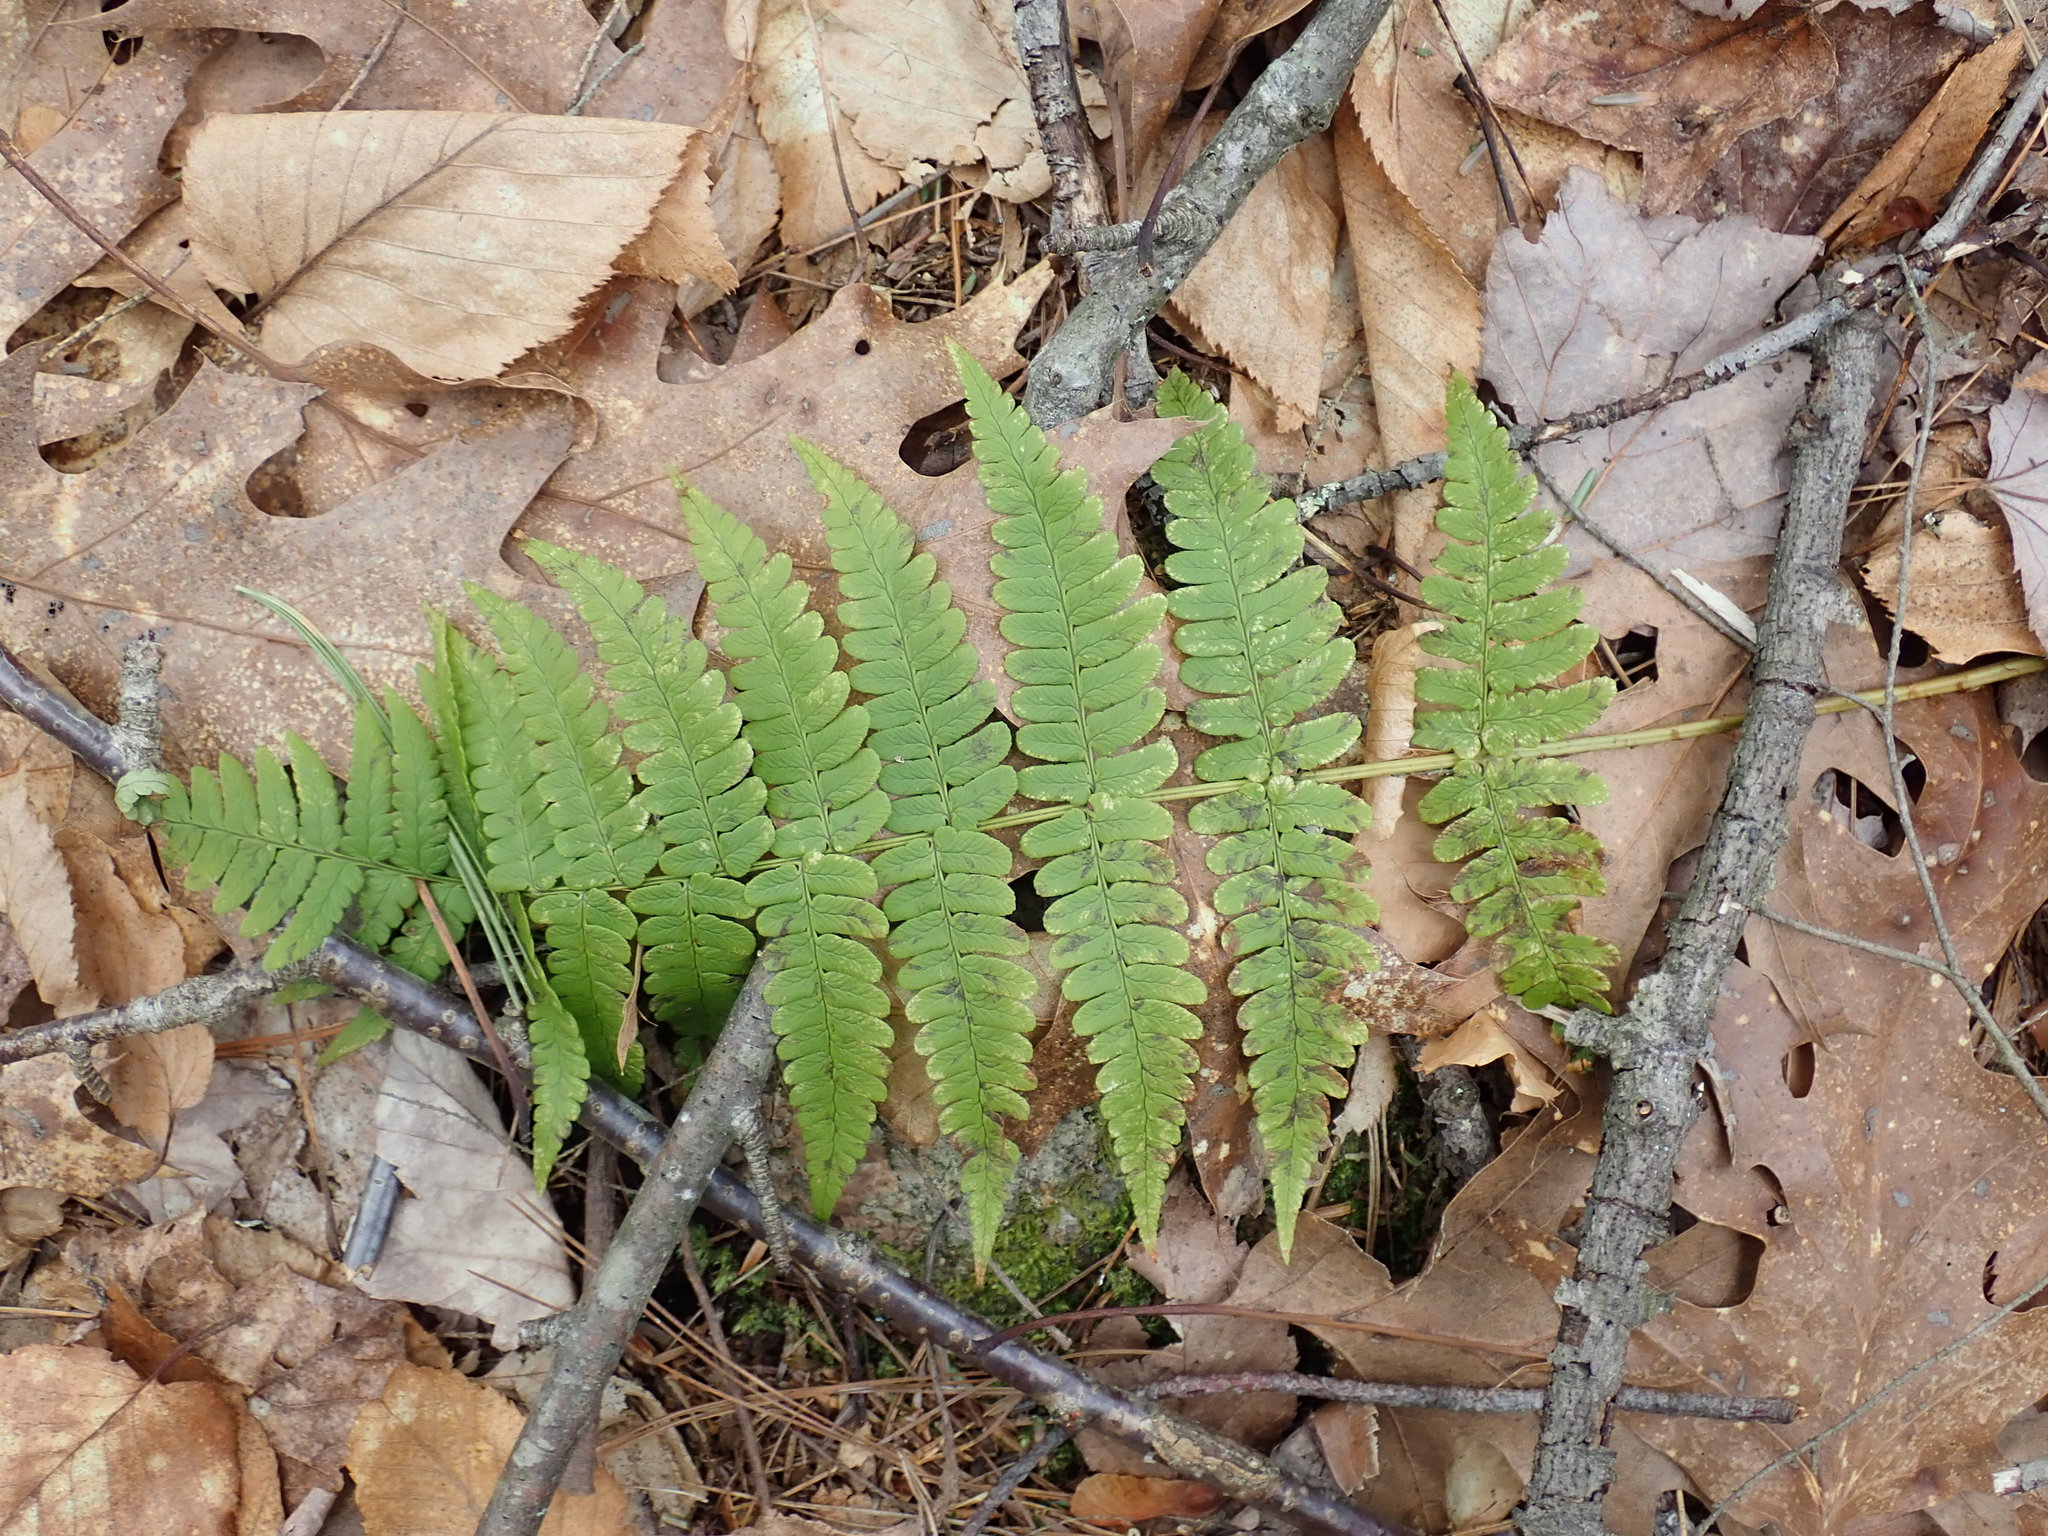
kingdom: Plantae
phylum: Tracheophyta
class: Polypodiopsida
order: Polypodiales
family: Dryopteridaceae
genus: Dryopteris
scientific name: Dryopteris marginalis
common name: Marginal wood fern
